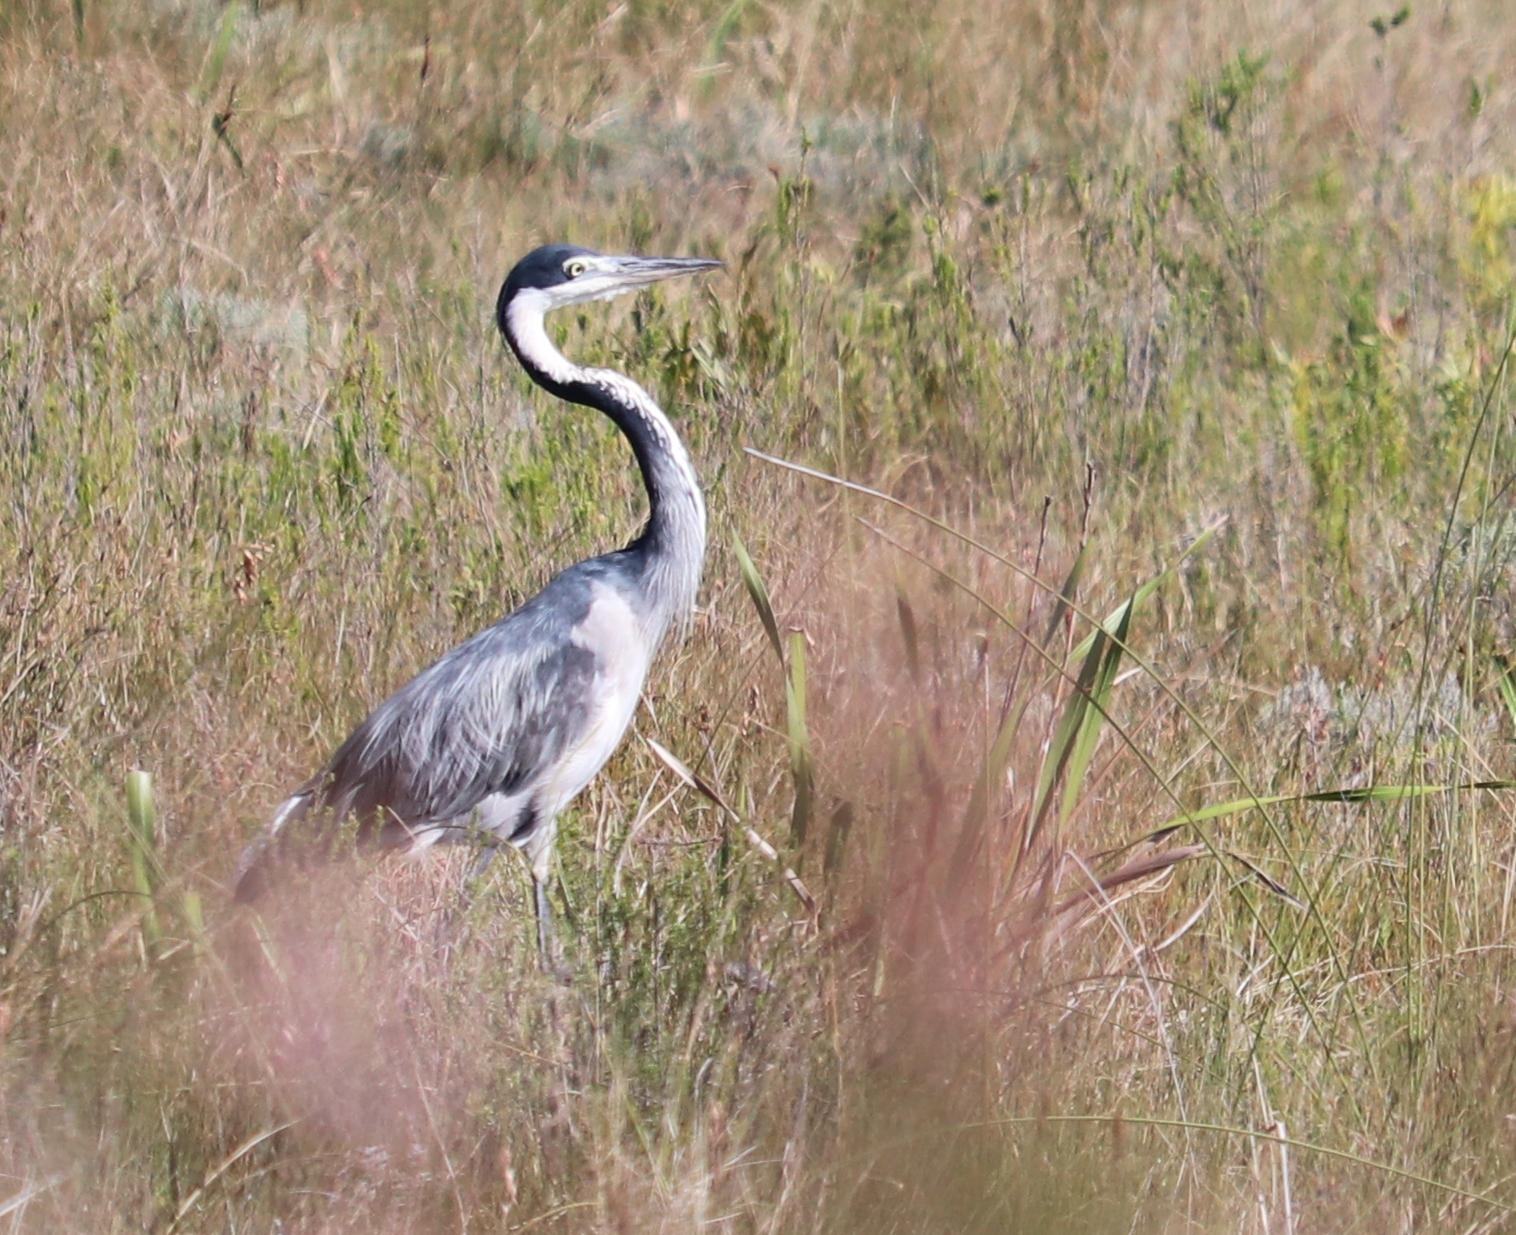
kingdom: Animalia
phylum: Chordata
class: Aves
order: Pelecaniformes
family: Ardeidae
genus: Ardea
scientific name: Ardea melanocephala
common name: Black-headed heron
